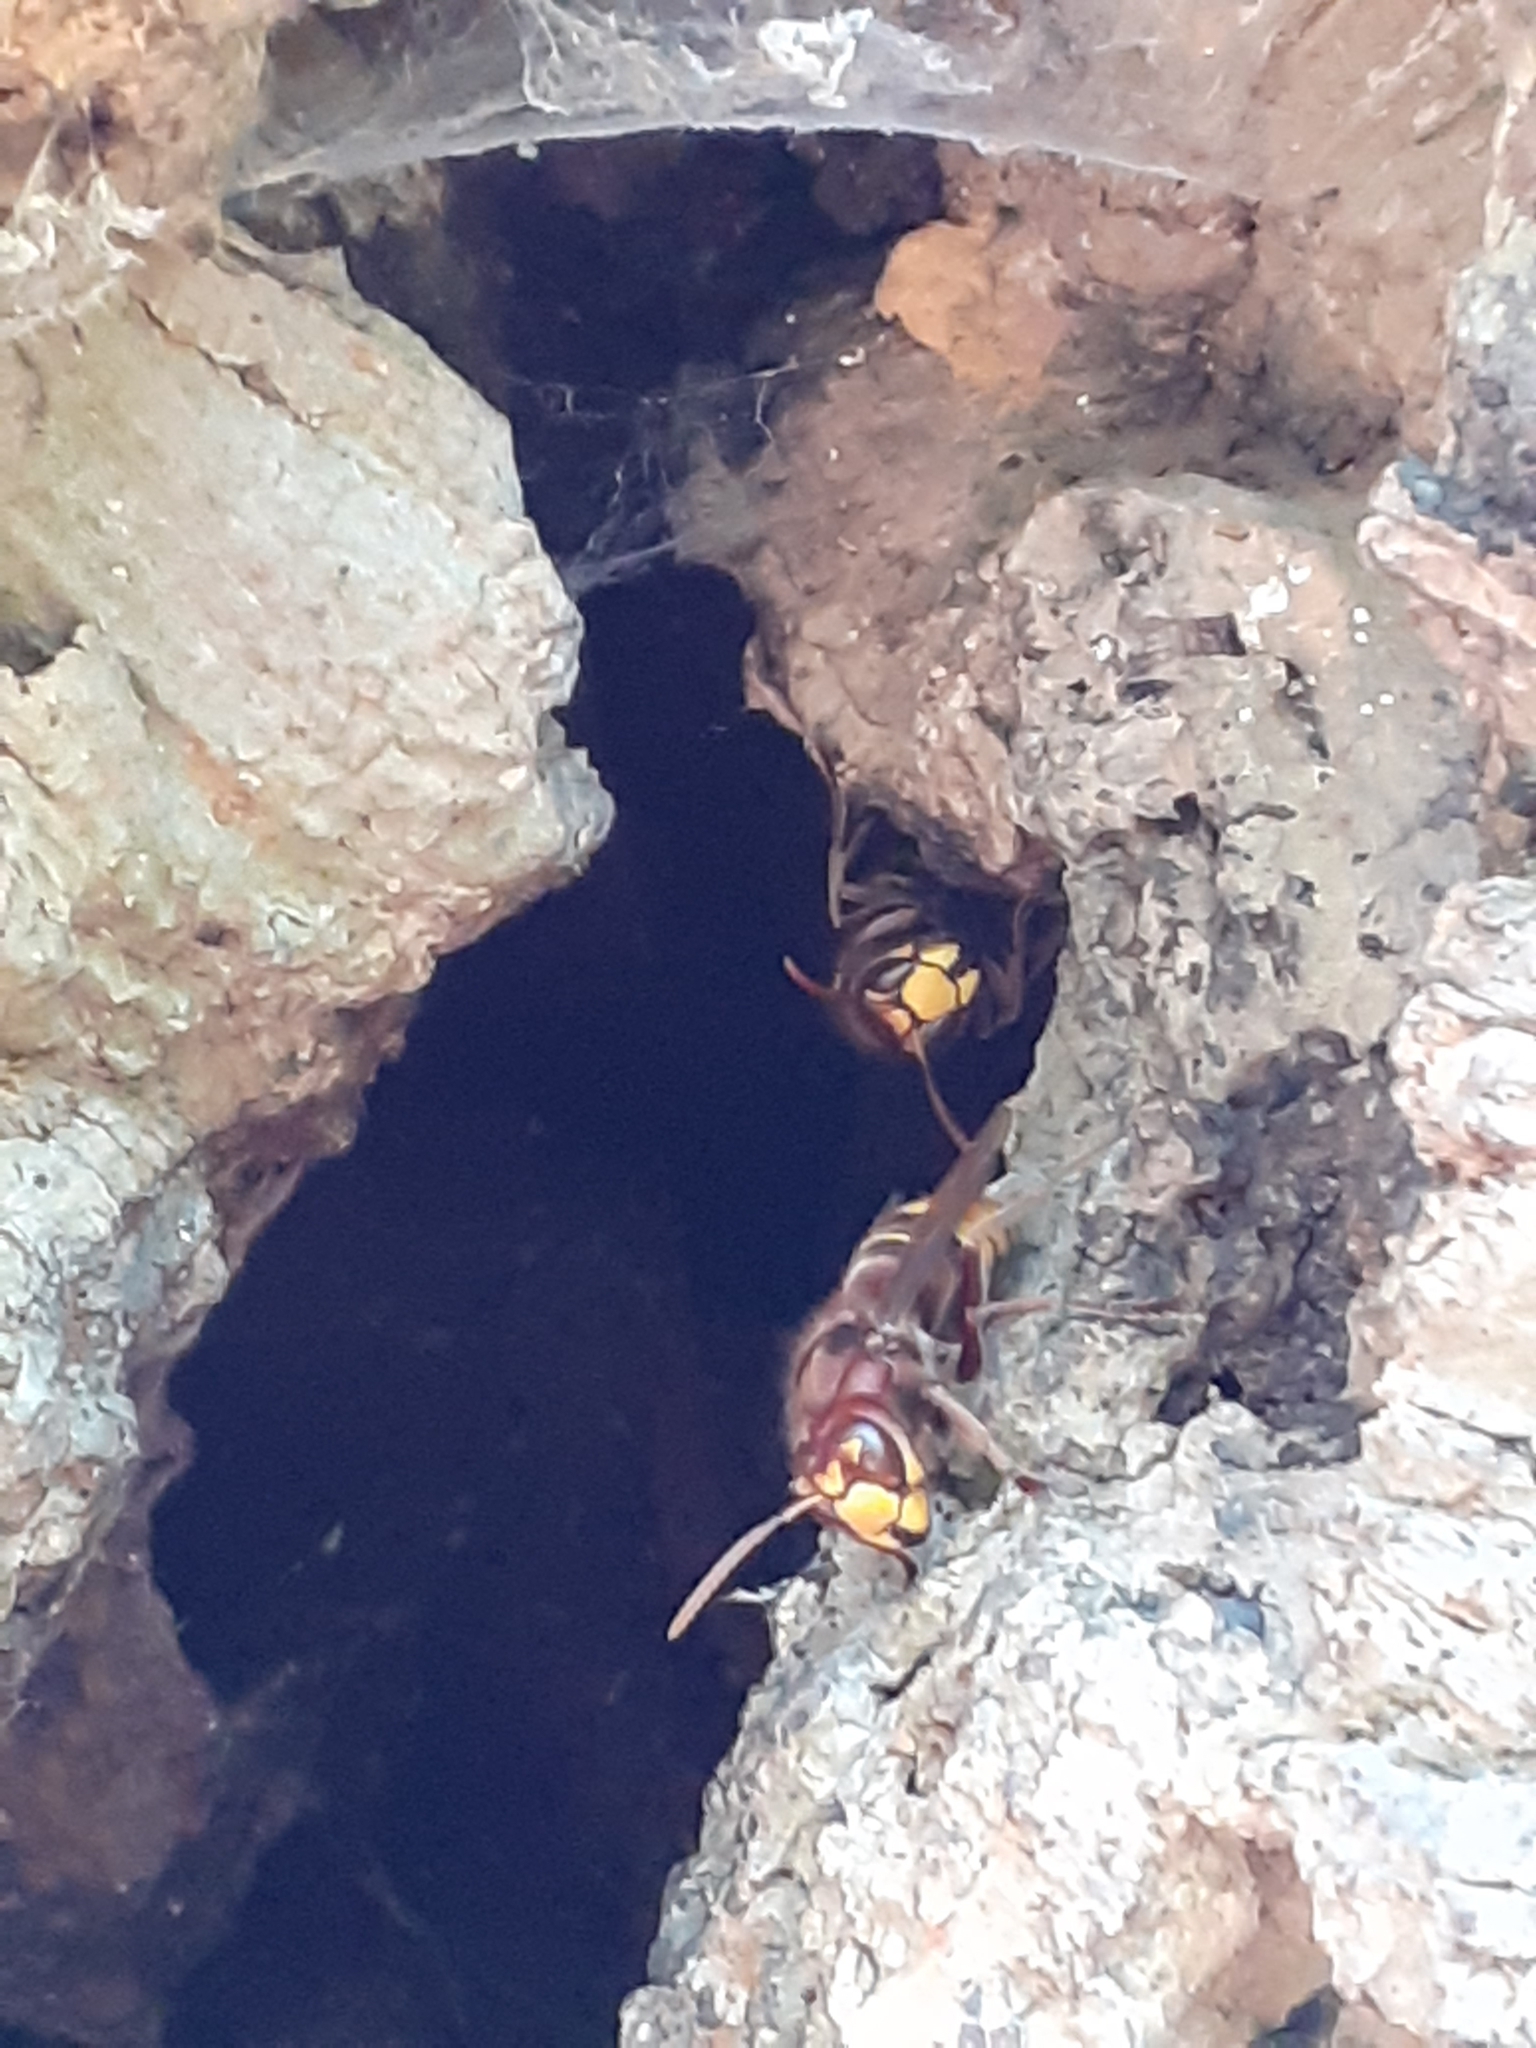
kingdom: Animalia
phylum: Arthropoda
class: Insecta
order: Hymenoptera
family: Vespidae
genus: Vespa
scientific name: Vespa crabro
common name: Hornet
